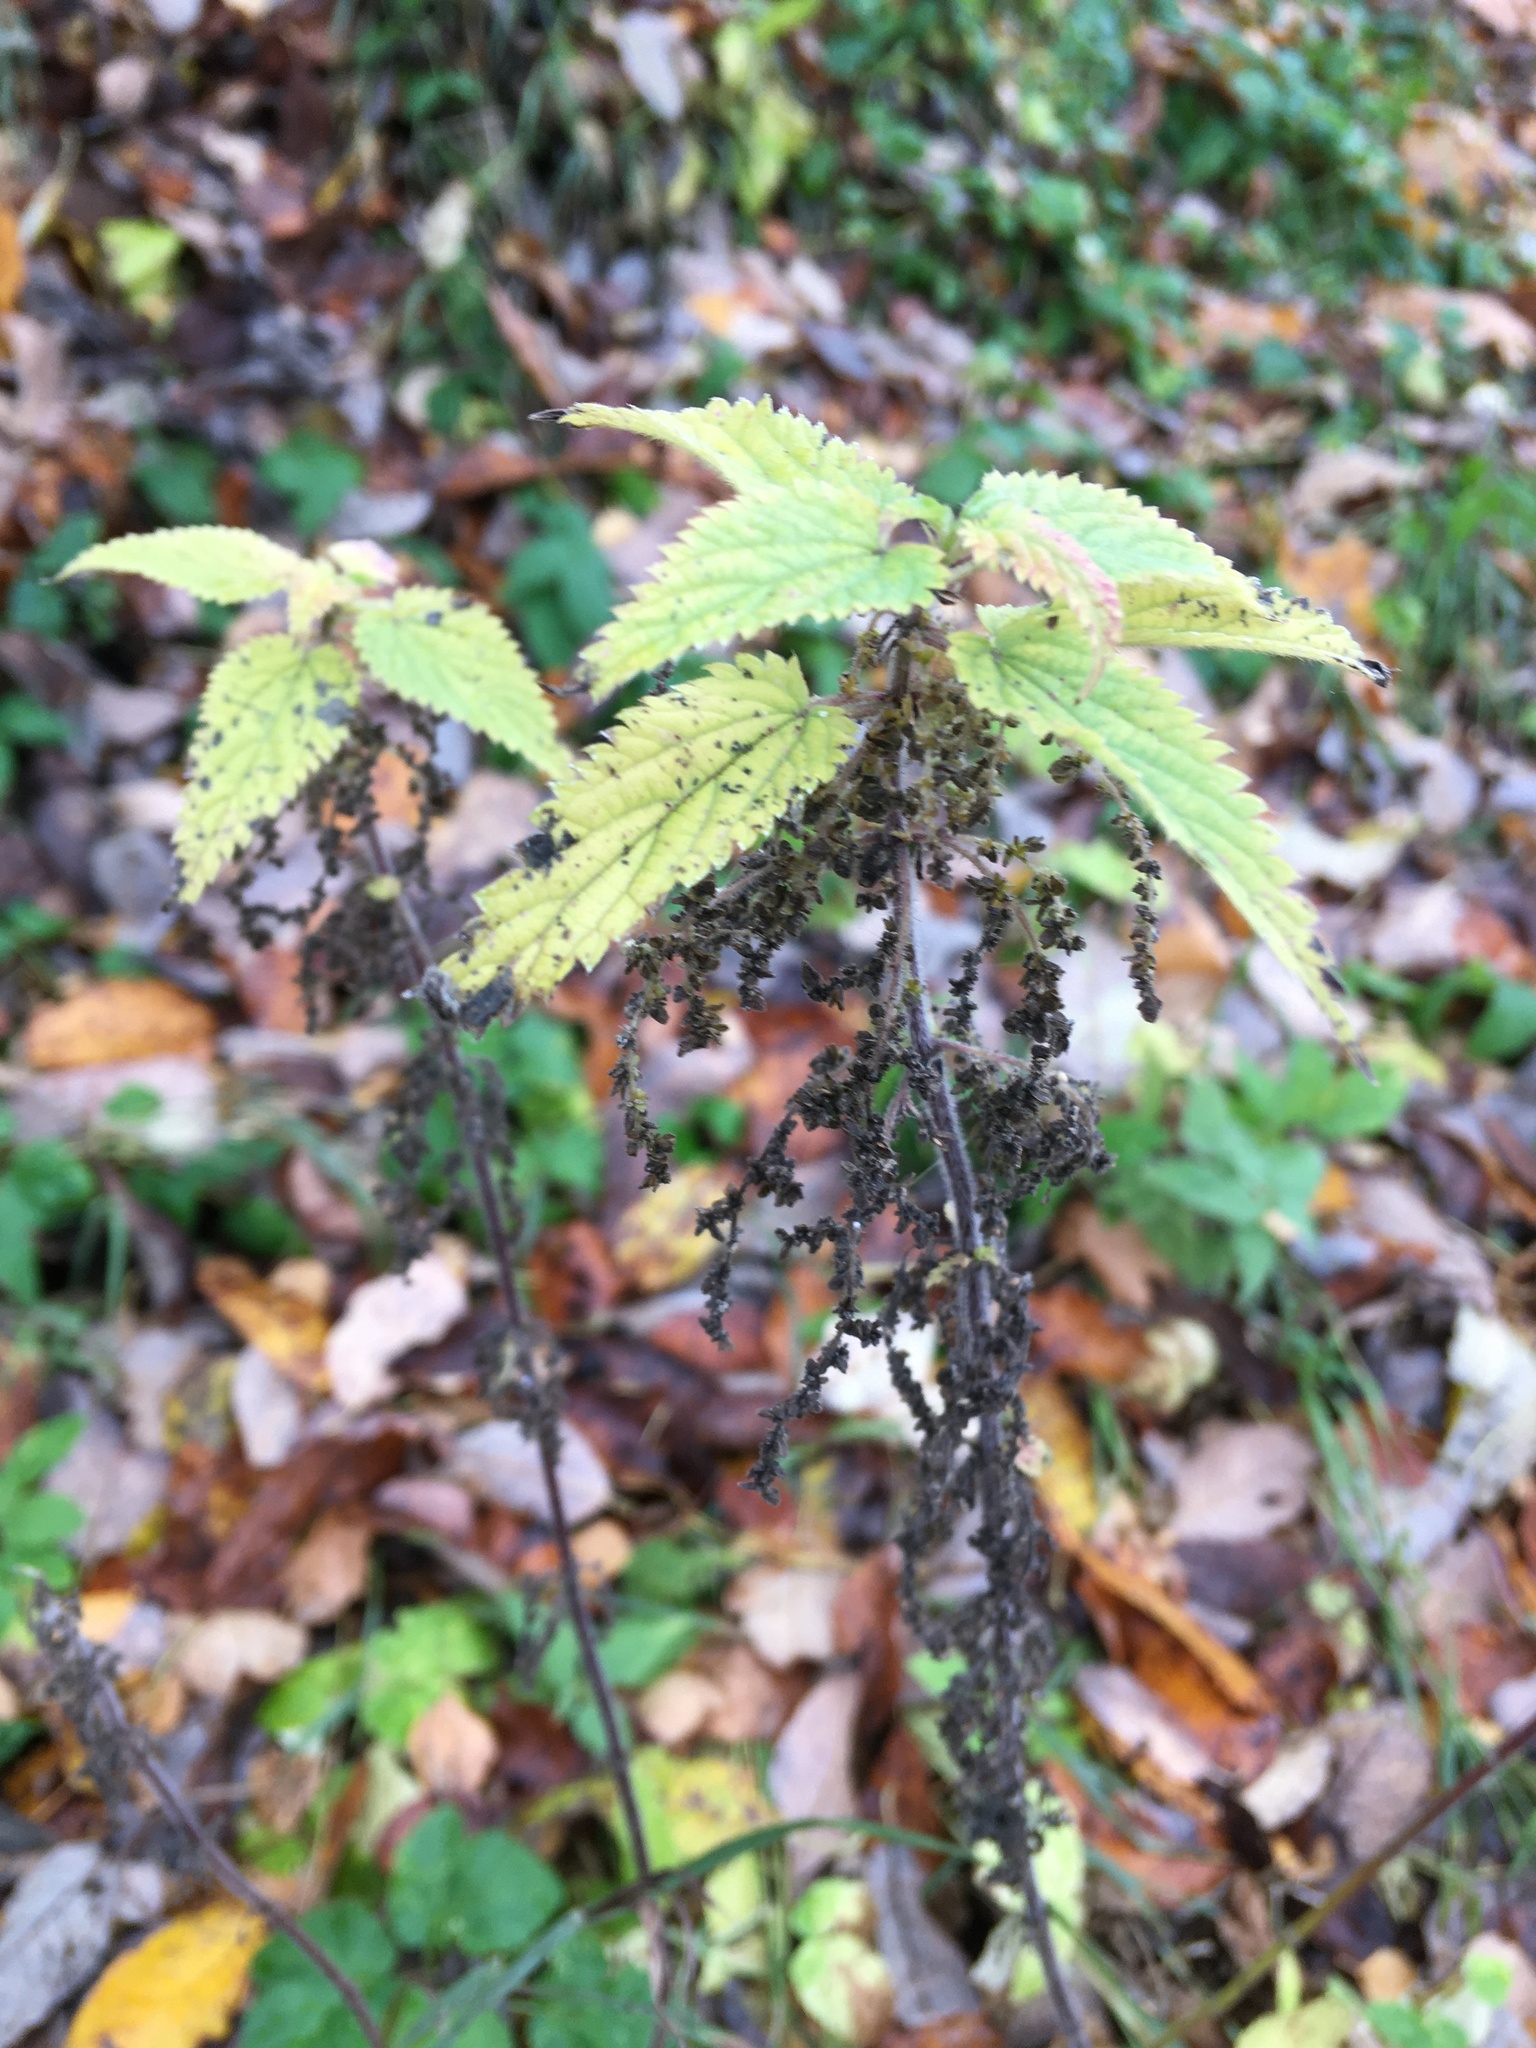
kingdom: Plantae
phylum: Tracheophyta
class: Magnoliopsida
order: Rosales
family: Urticaceae
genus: Urtica
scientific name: Urtica dioica
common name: Common nettle
